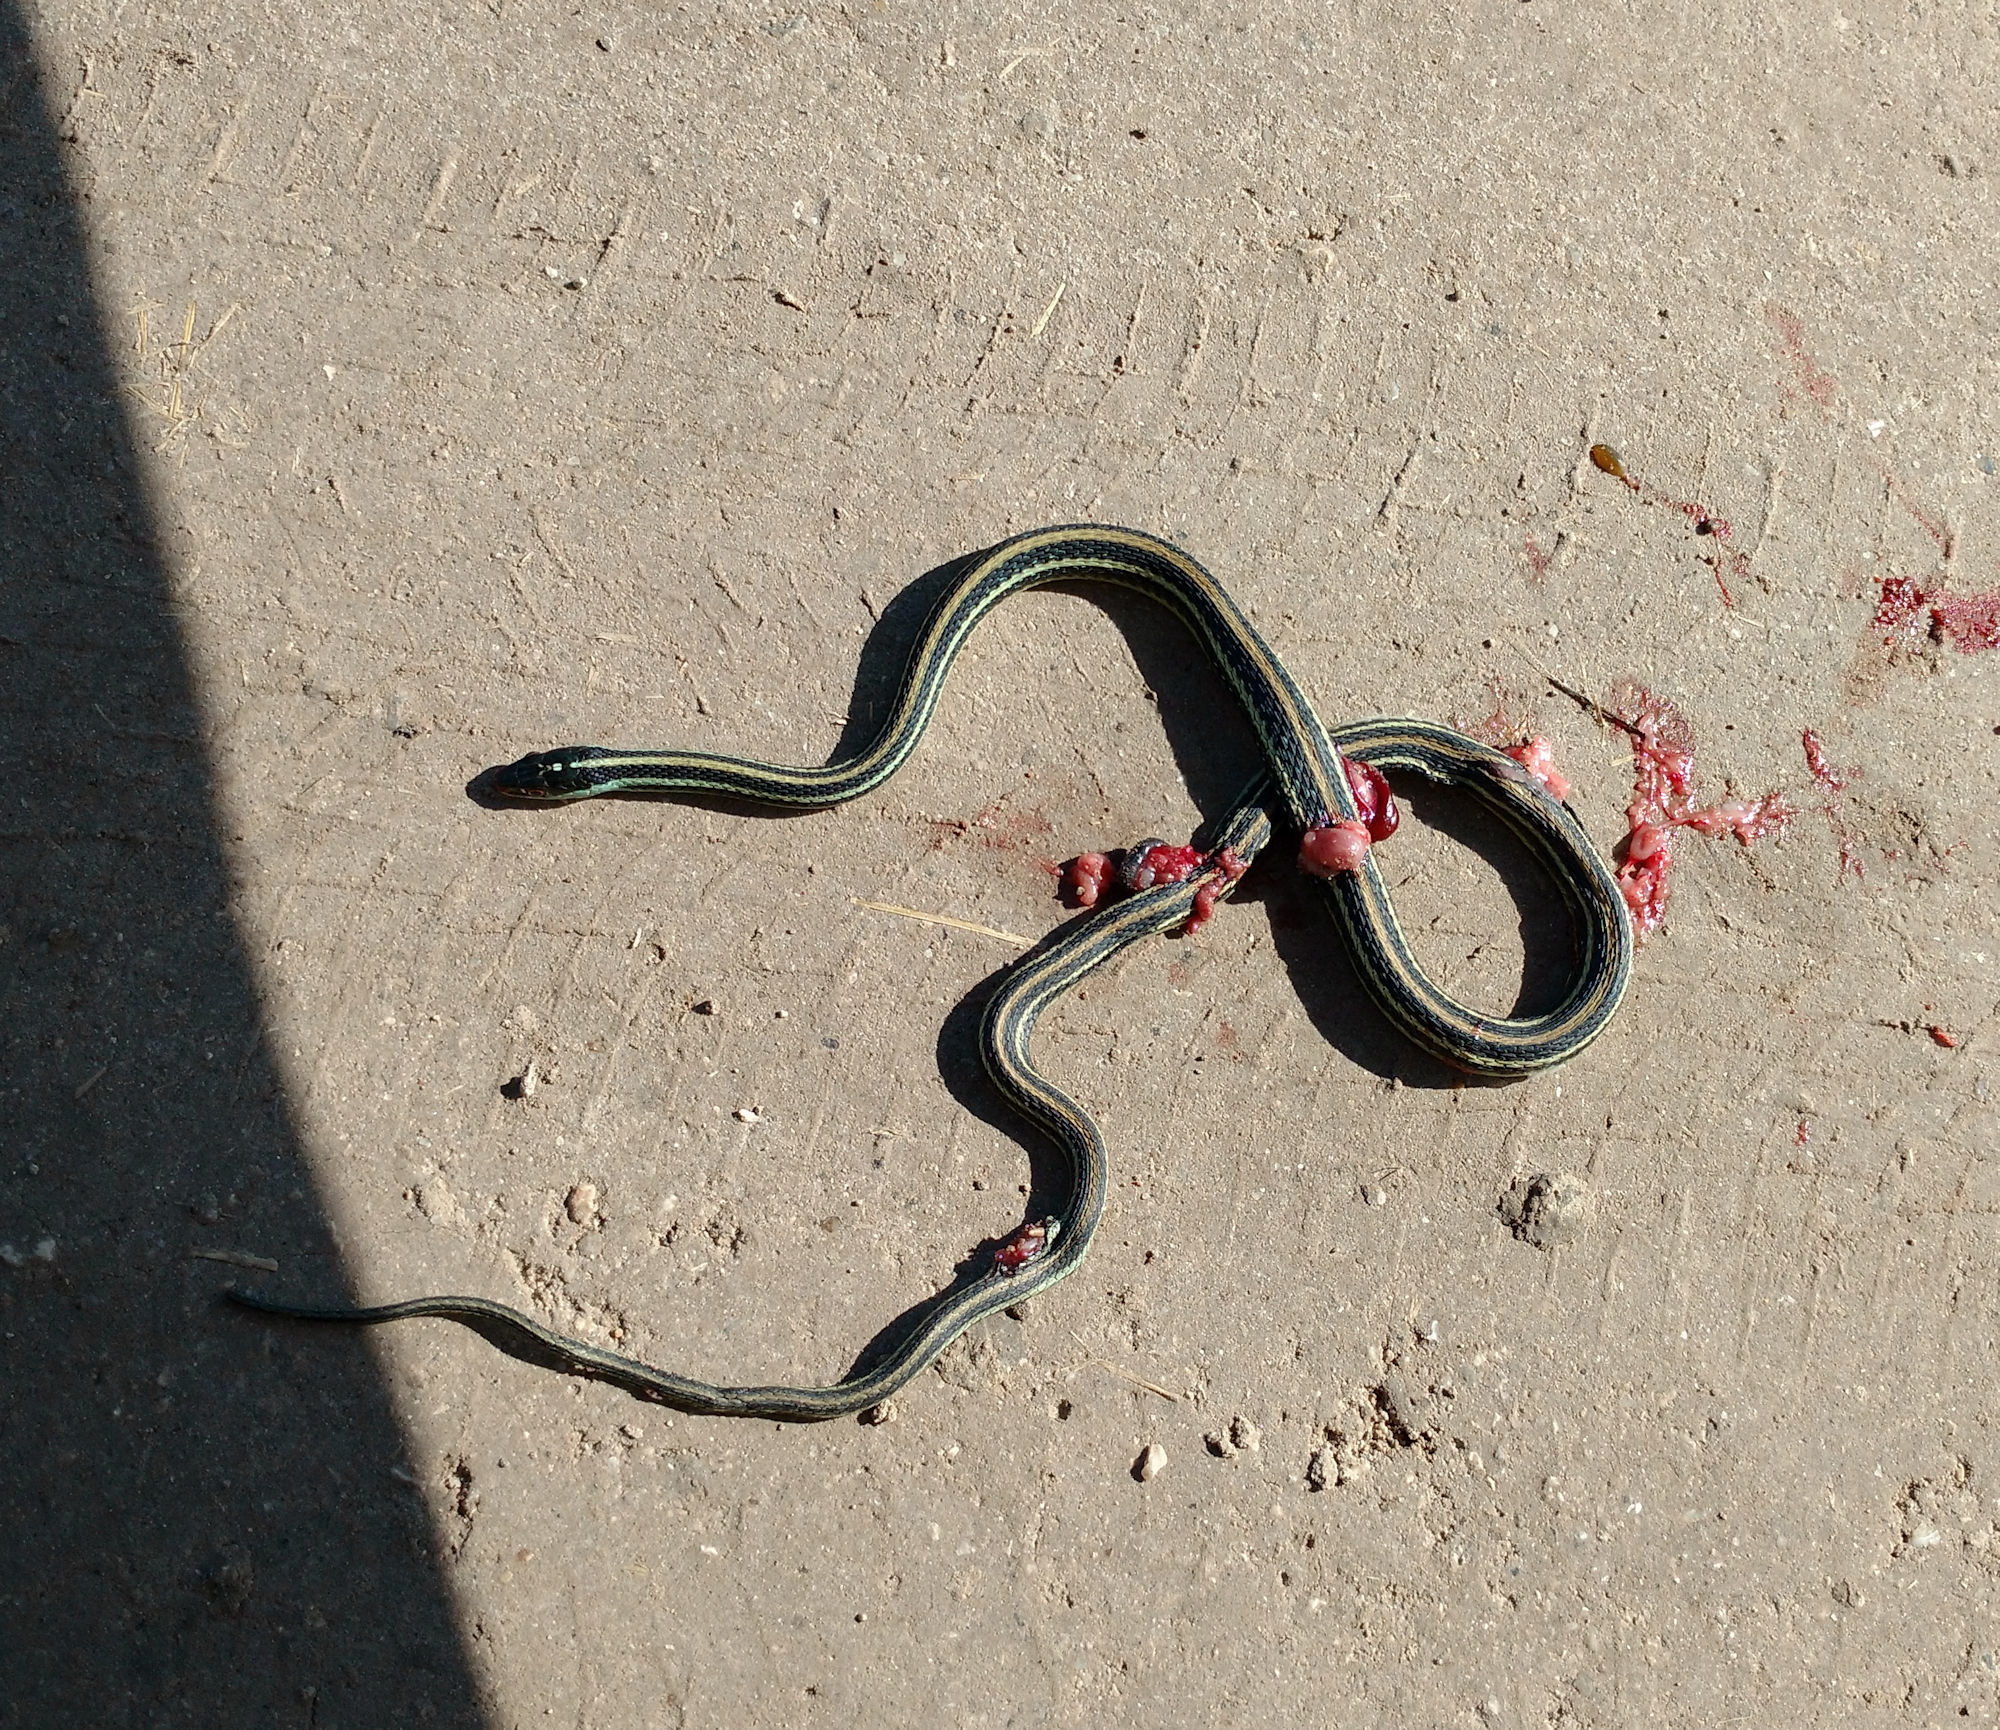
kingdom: Animalia
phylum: Chordata
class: Squamata
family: Colubridae
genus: Thamnophis
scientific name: Thamnophis proximus
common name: Western ribbon snake
